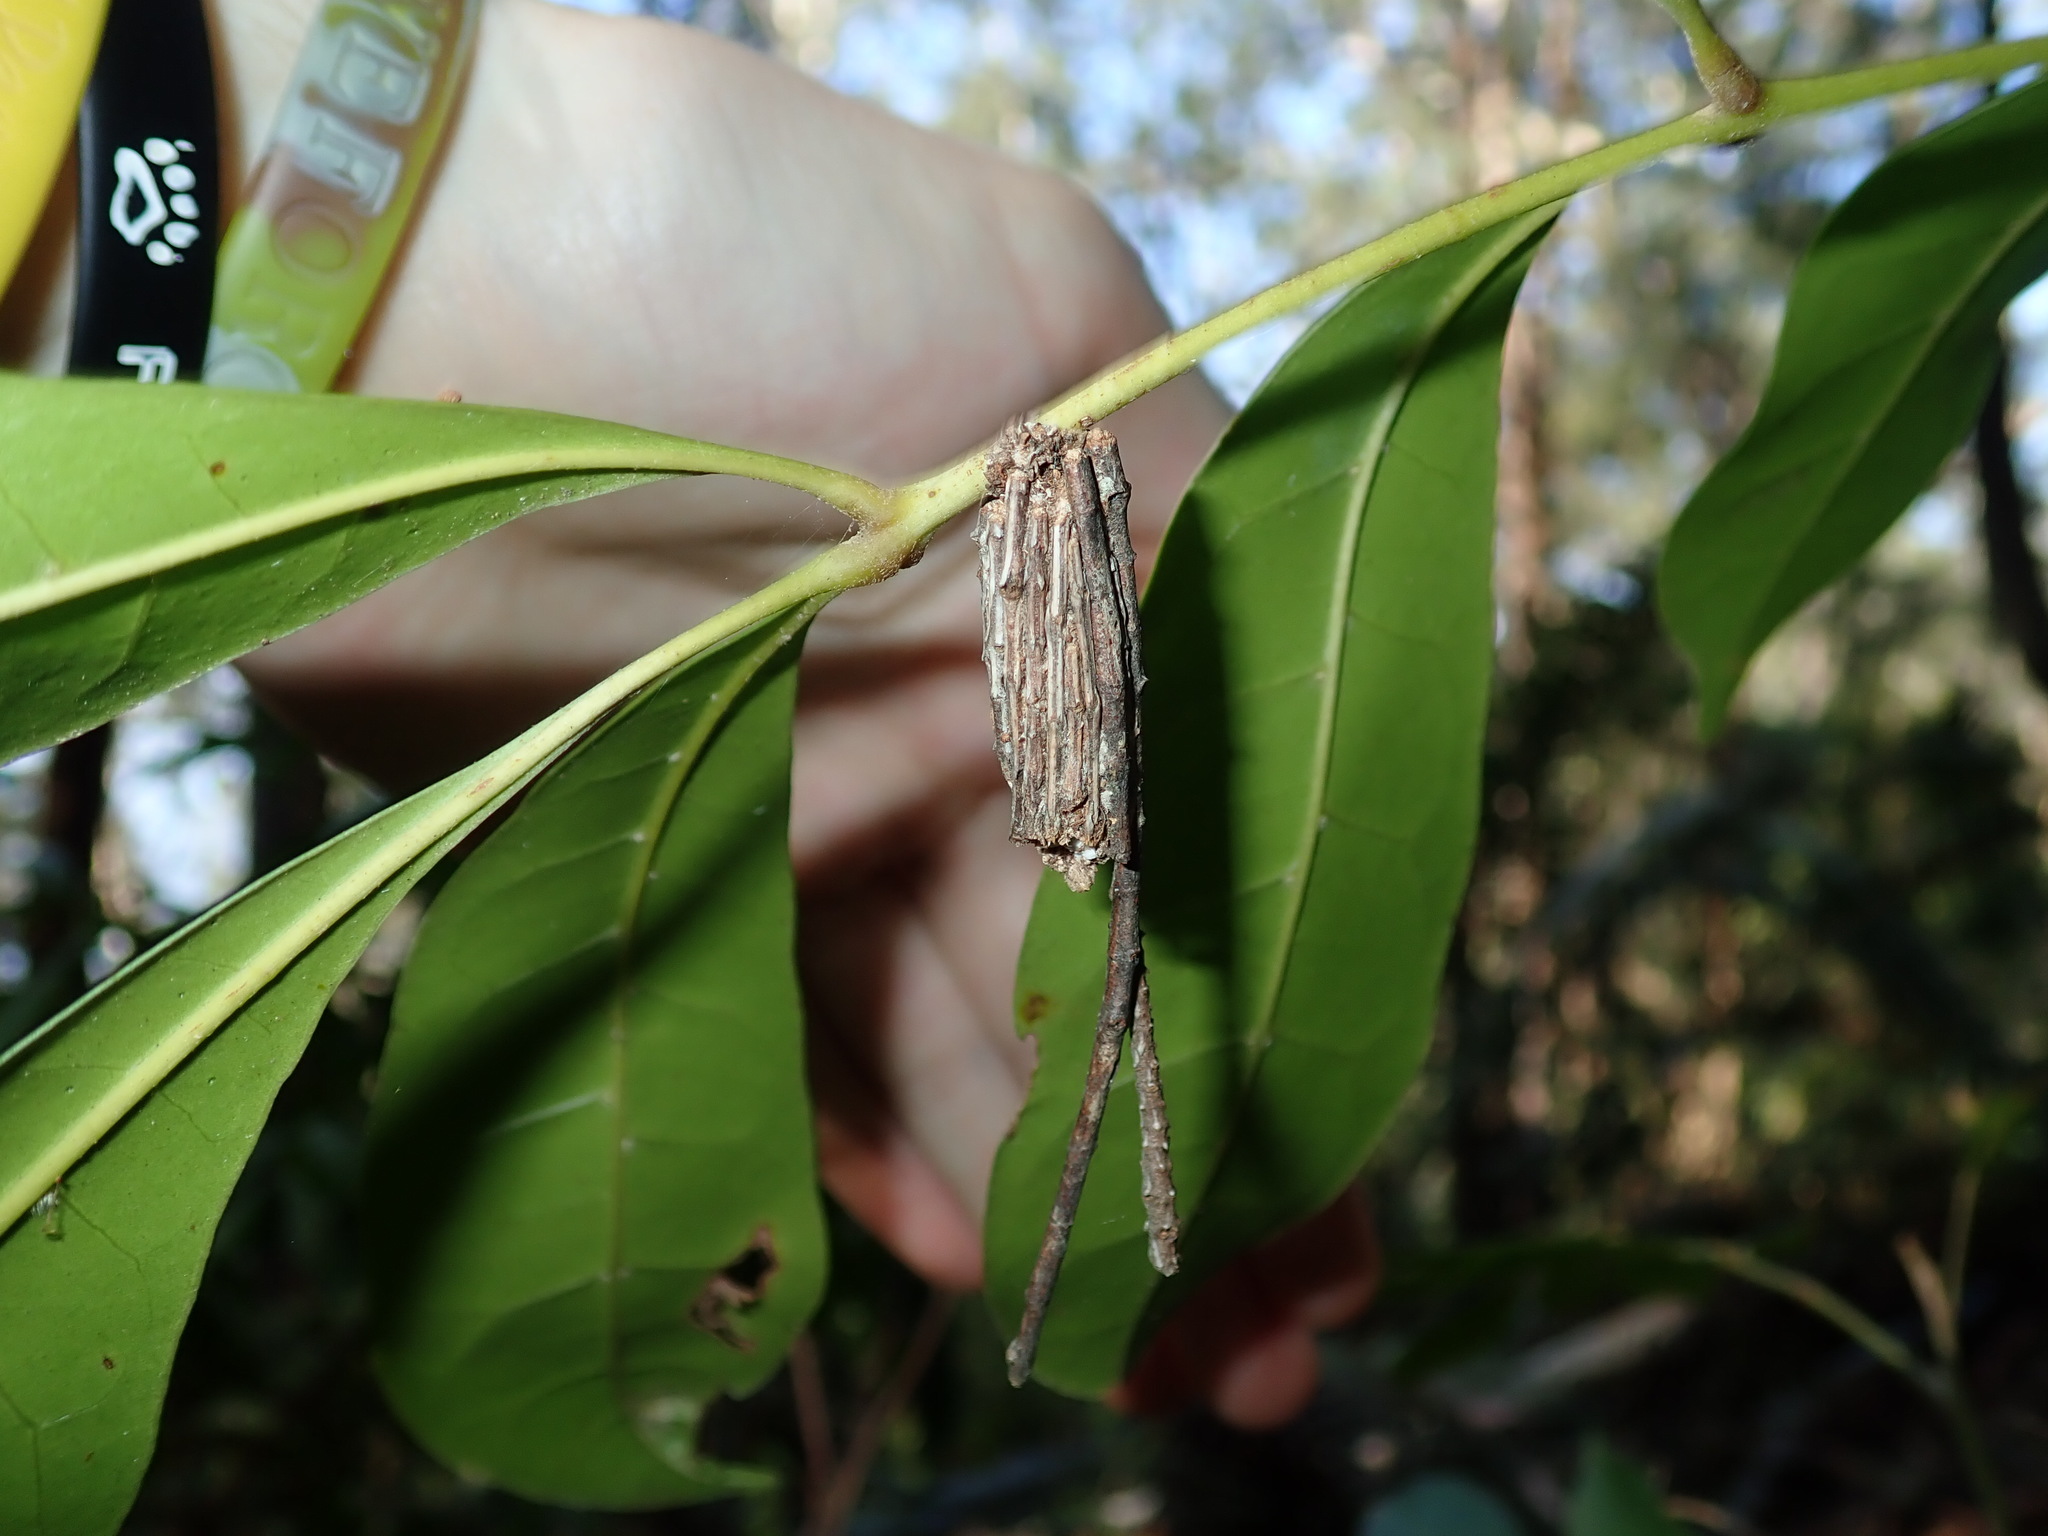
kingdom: Animalia
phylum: Arthropoda
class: Insecta
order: Lepidoptera
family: Psychidae
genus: Clania
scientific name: Clania ignobilis
